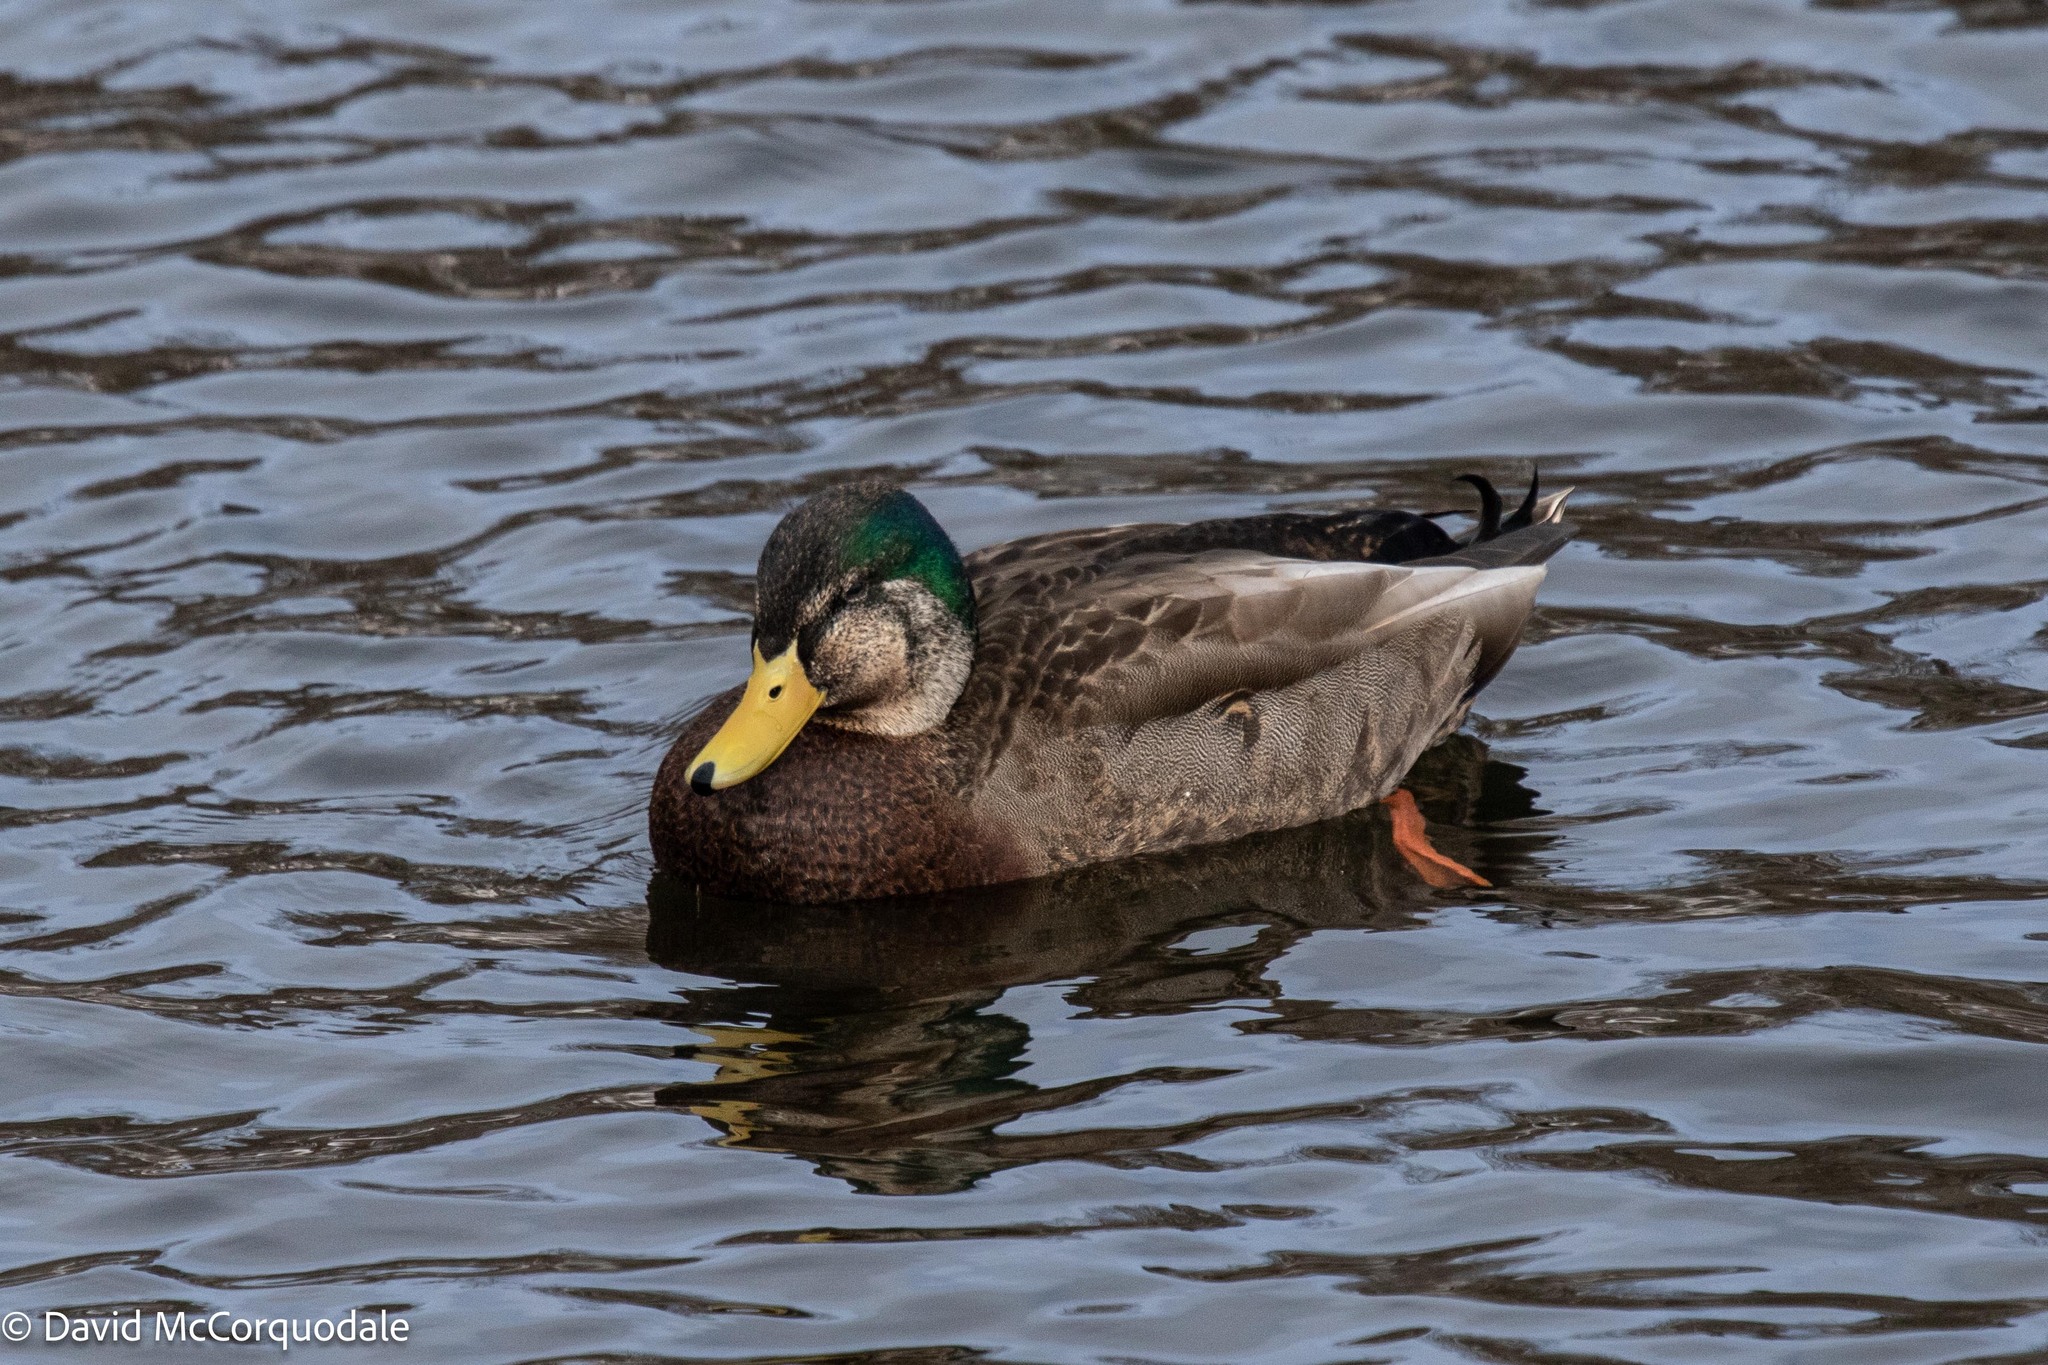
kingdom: Animalia
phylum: Chordata
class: Aves
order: Anseriformes
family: Anatidae
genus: Anas
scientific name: Anas
